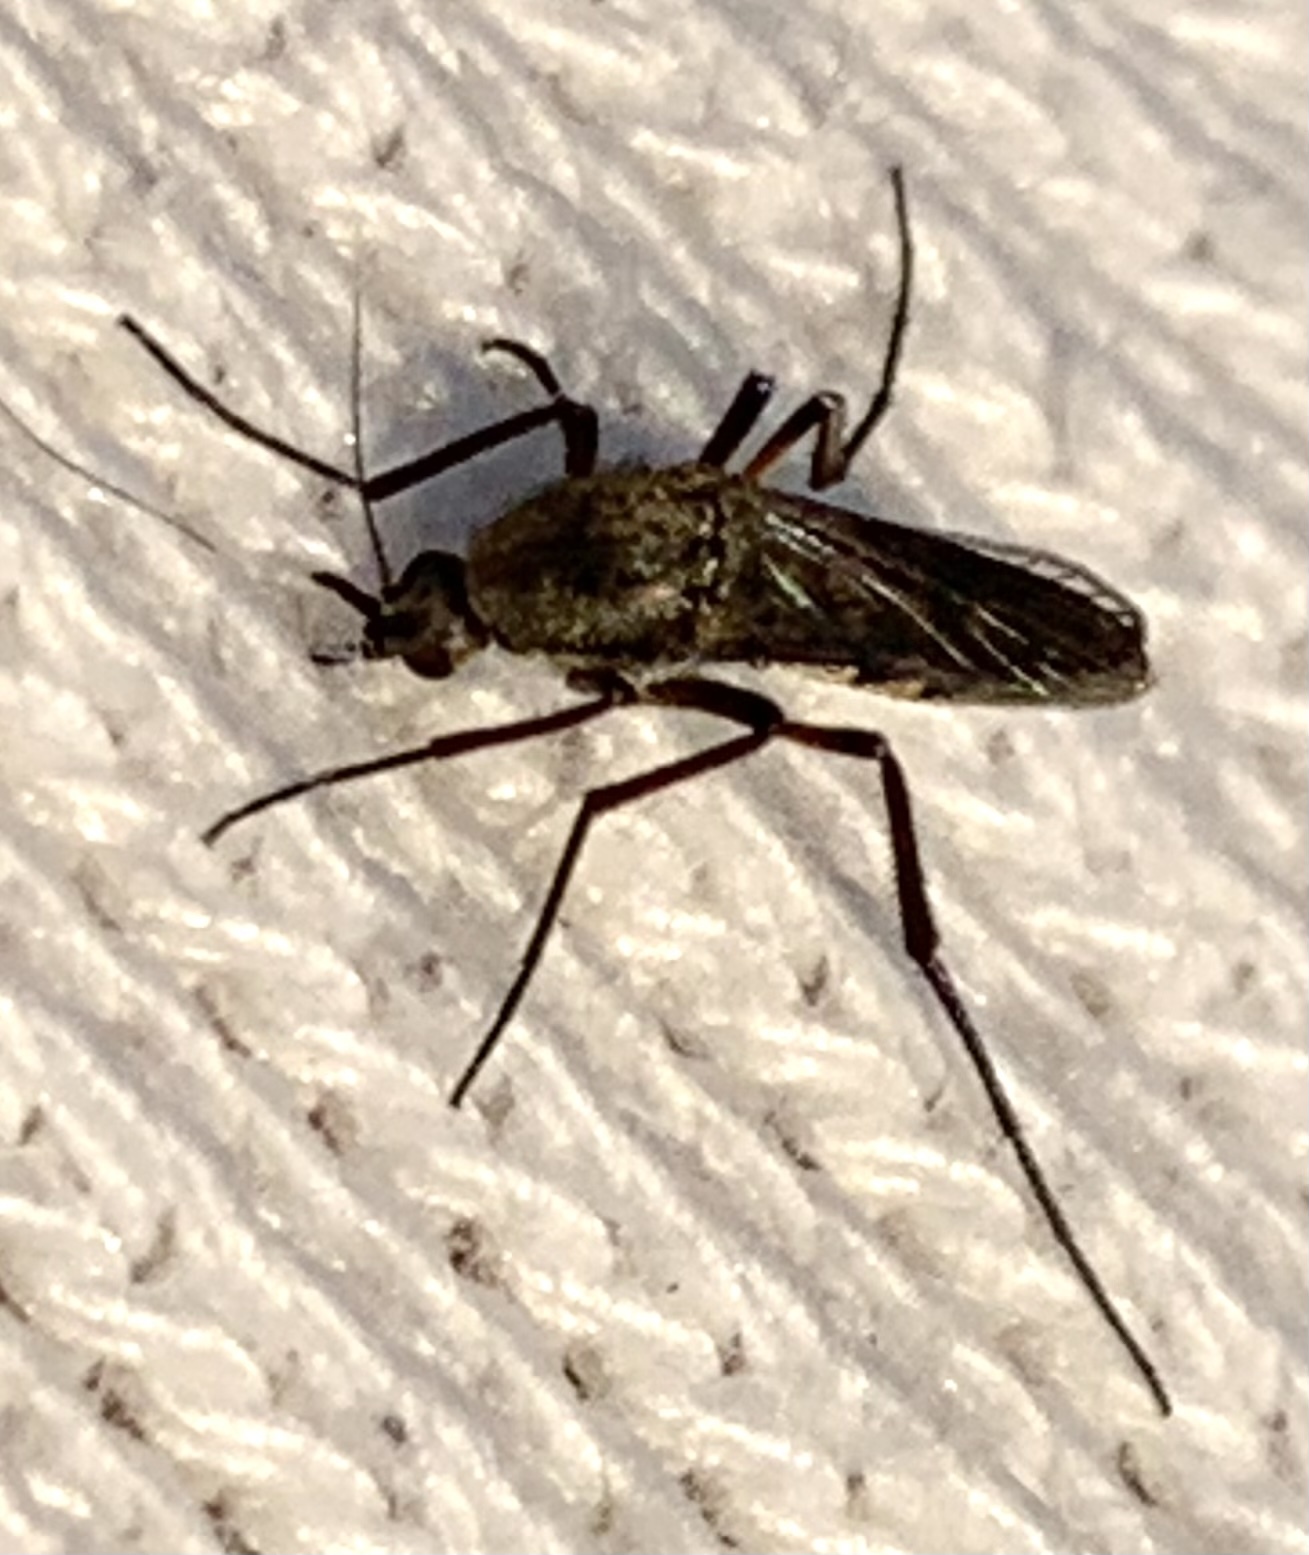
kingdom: Animalia
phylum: Arthropoda
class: Insecta
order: Diptera
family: Culicidae
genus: Psorophora
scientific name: Psorophora cyanescens
